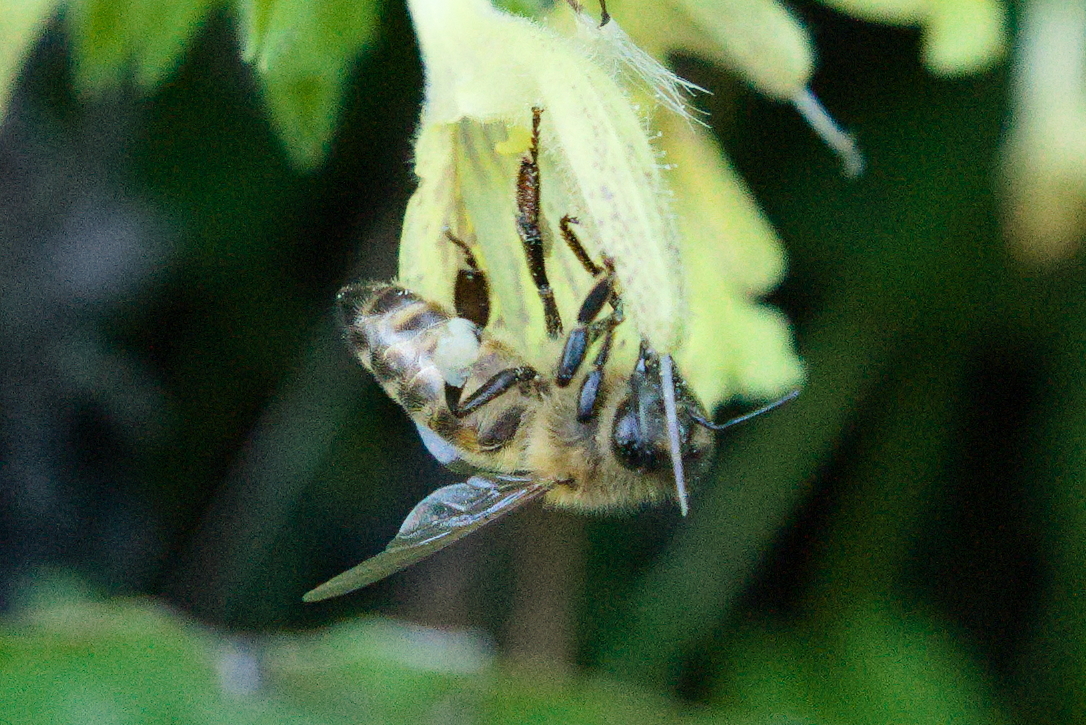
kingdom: Animalia
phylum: Arthropoda
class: Insecta
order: Hymenoptera
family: Apidae
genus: Apis
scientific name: Apis mellifera
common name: Honey bee
